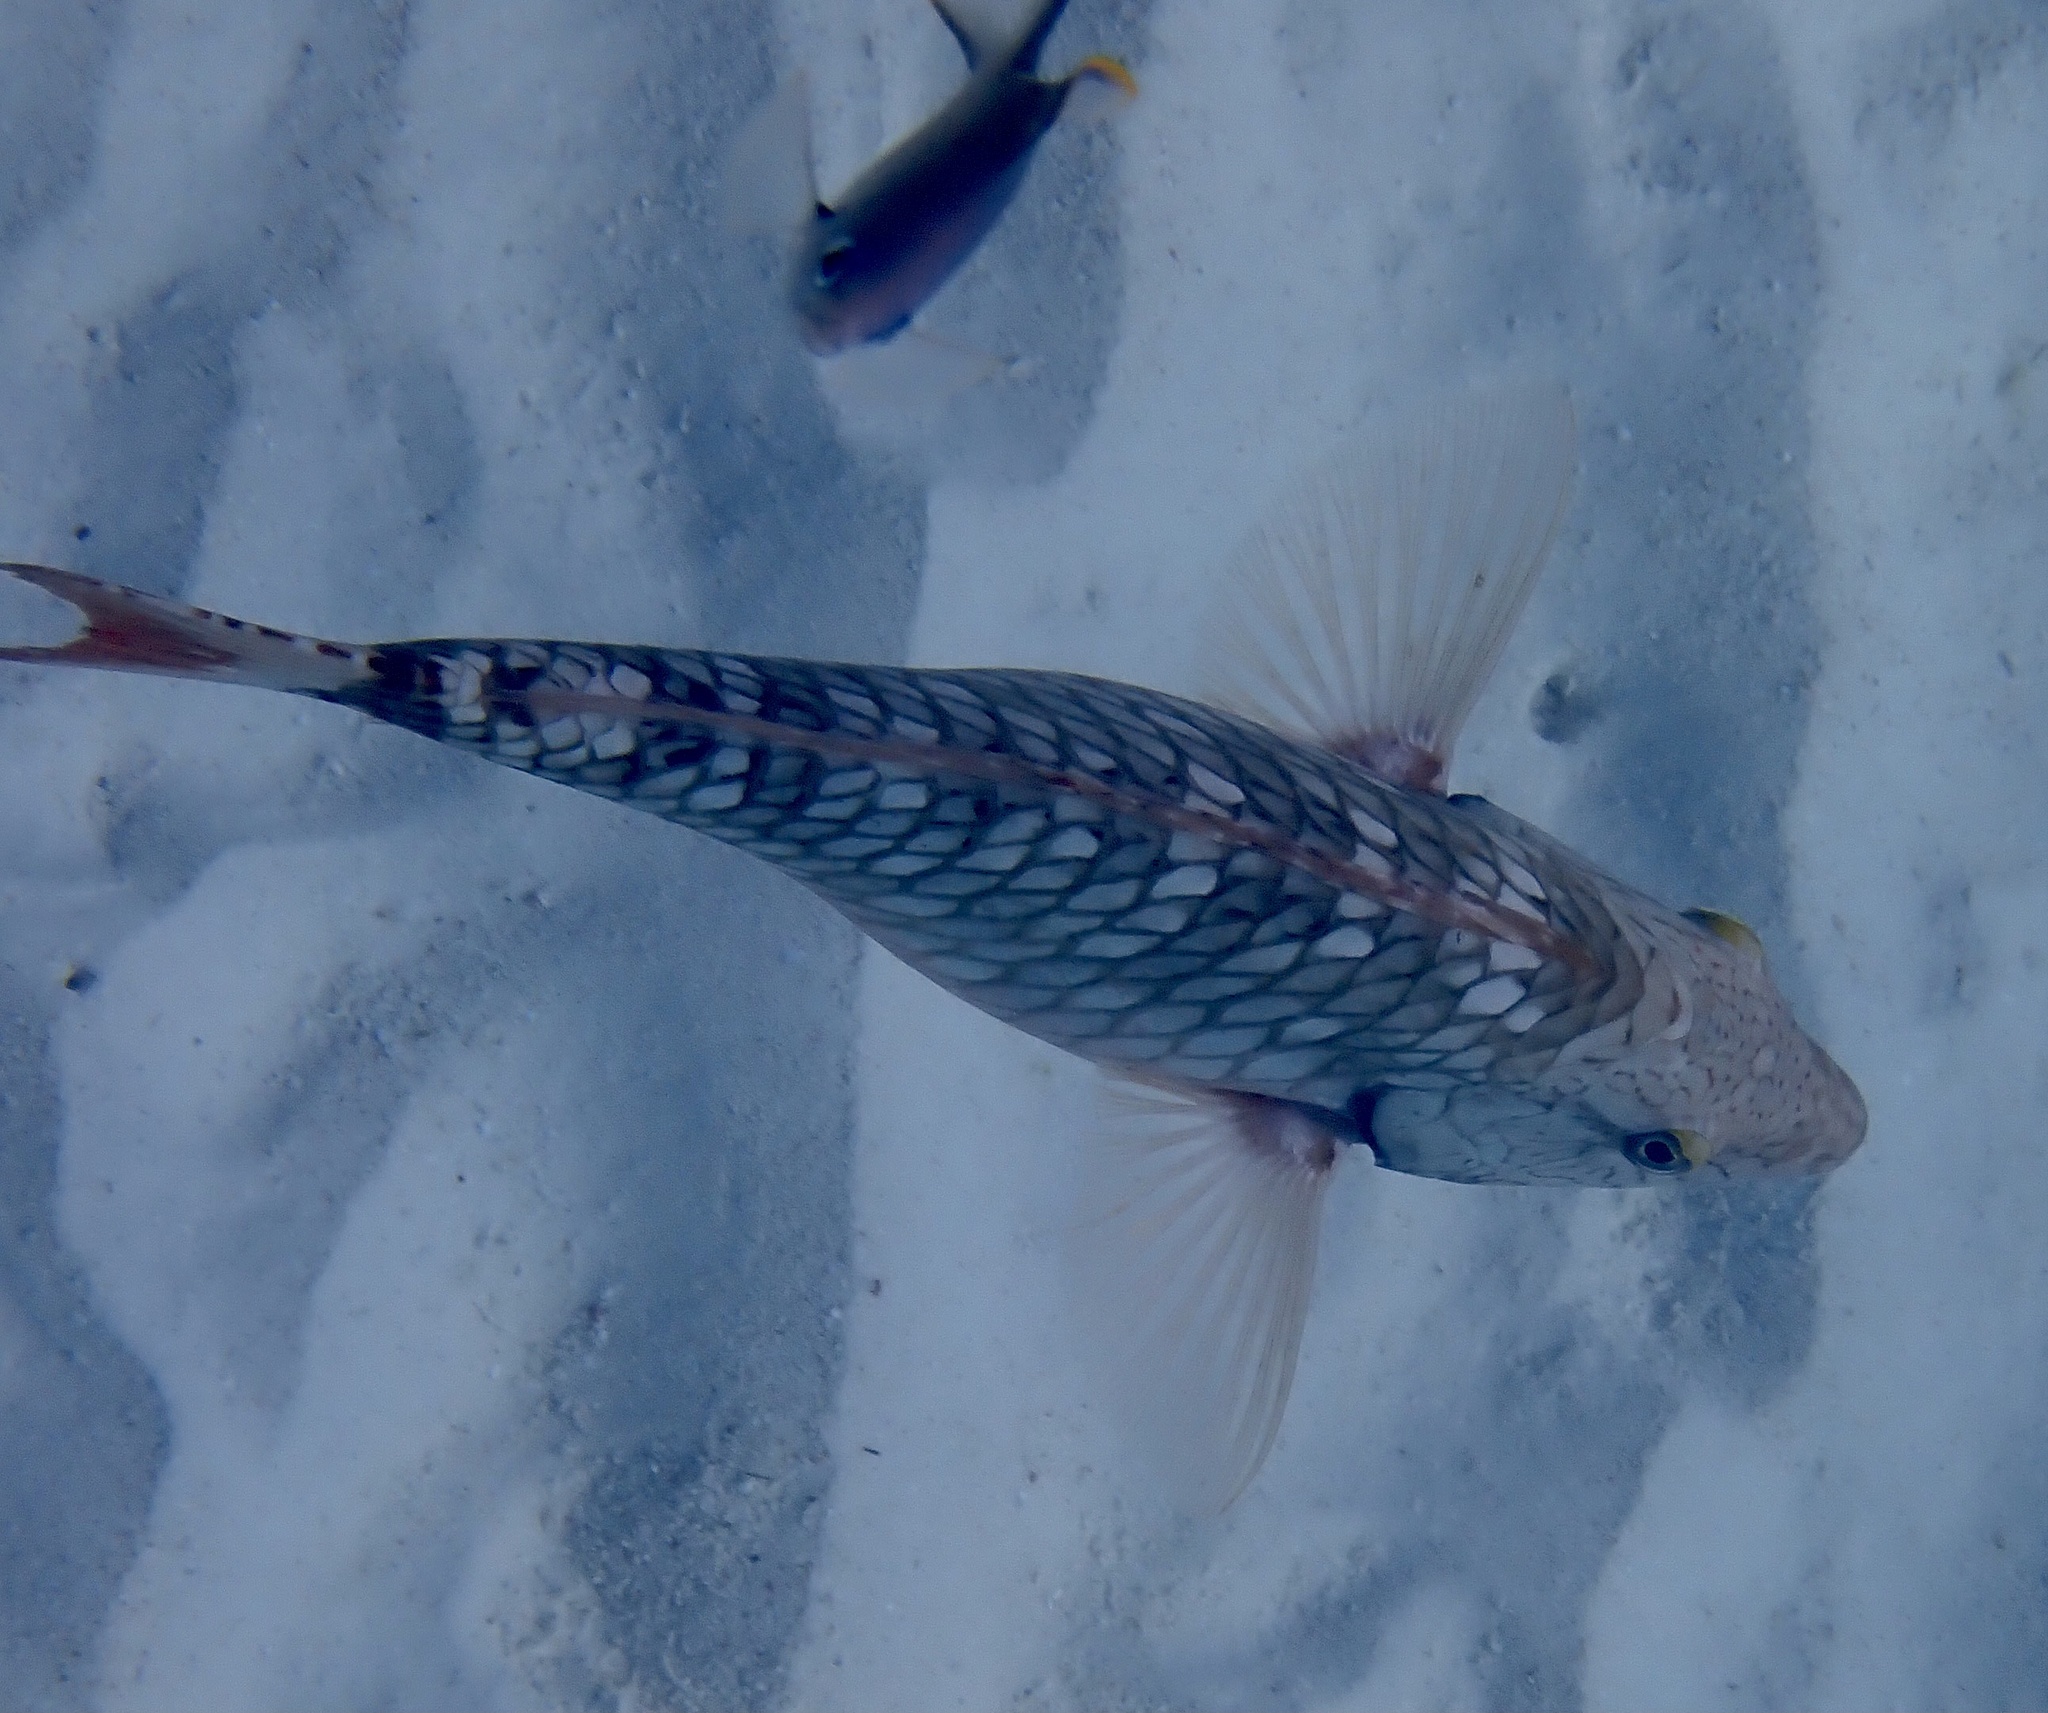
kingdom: Animalia
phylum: Chordata
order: Perciformes
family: Scaridae
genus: Sparisoma
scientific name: Sparisoma viride
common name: Stoplight parrotfish
